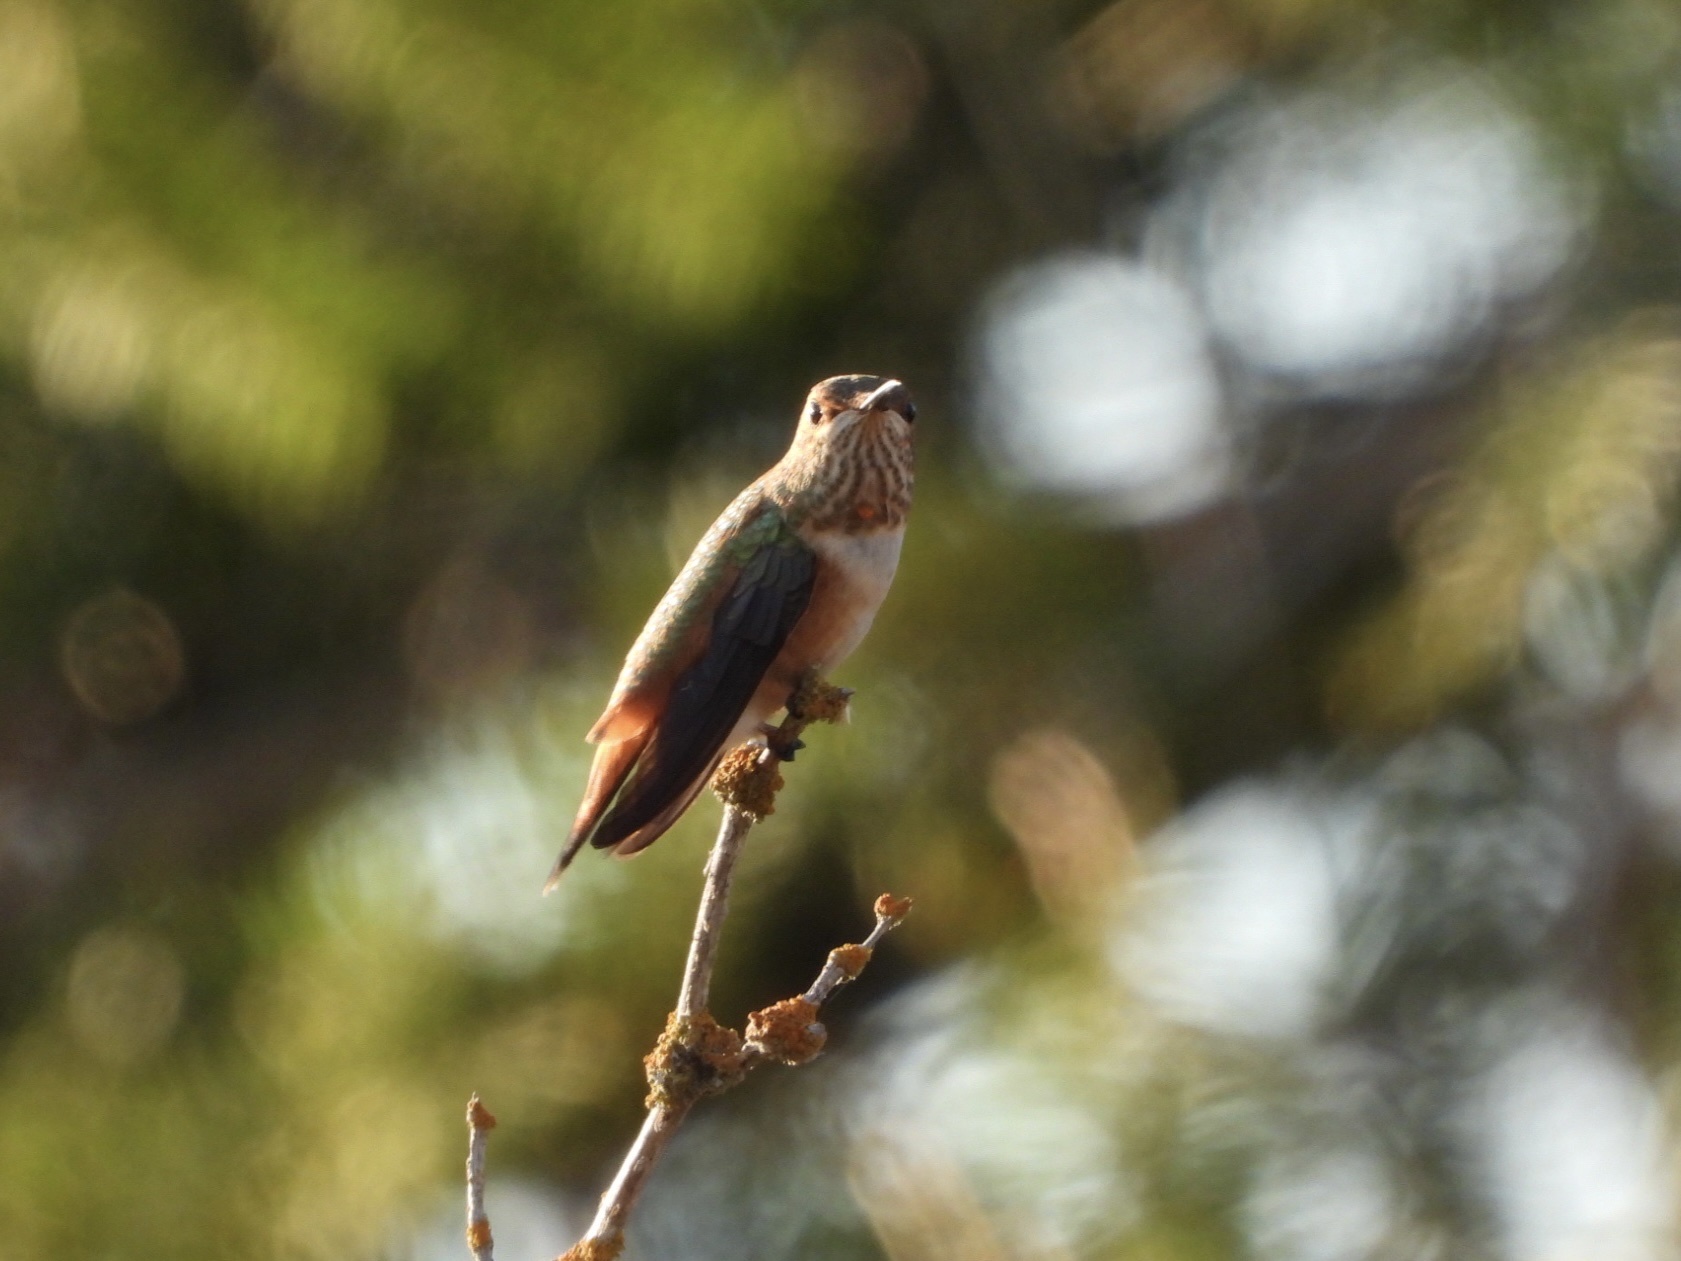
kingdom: Animalia
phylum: Chordata
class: Aves
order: Apodiformes
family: Trochilidae
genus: Selasphorus
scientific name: Selasphorus rufus
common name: Rufous hummingbird
